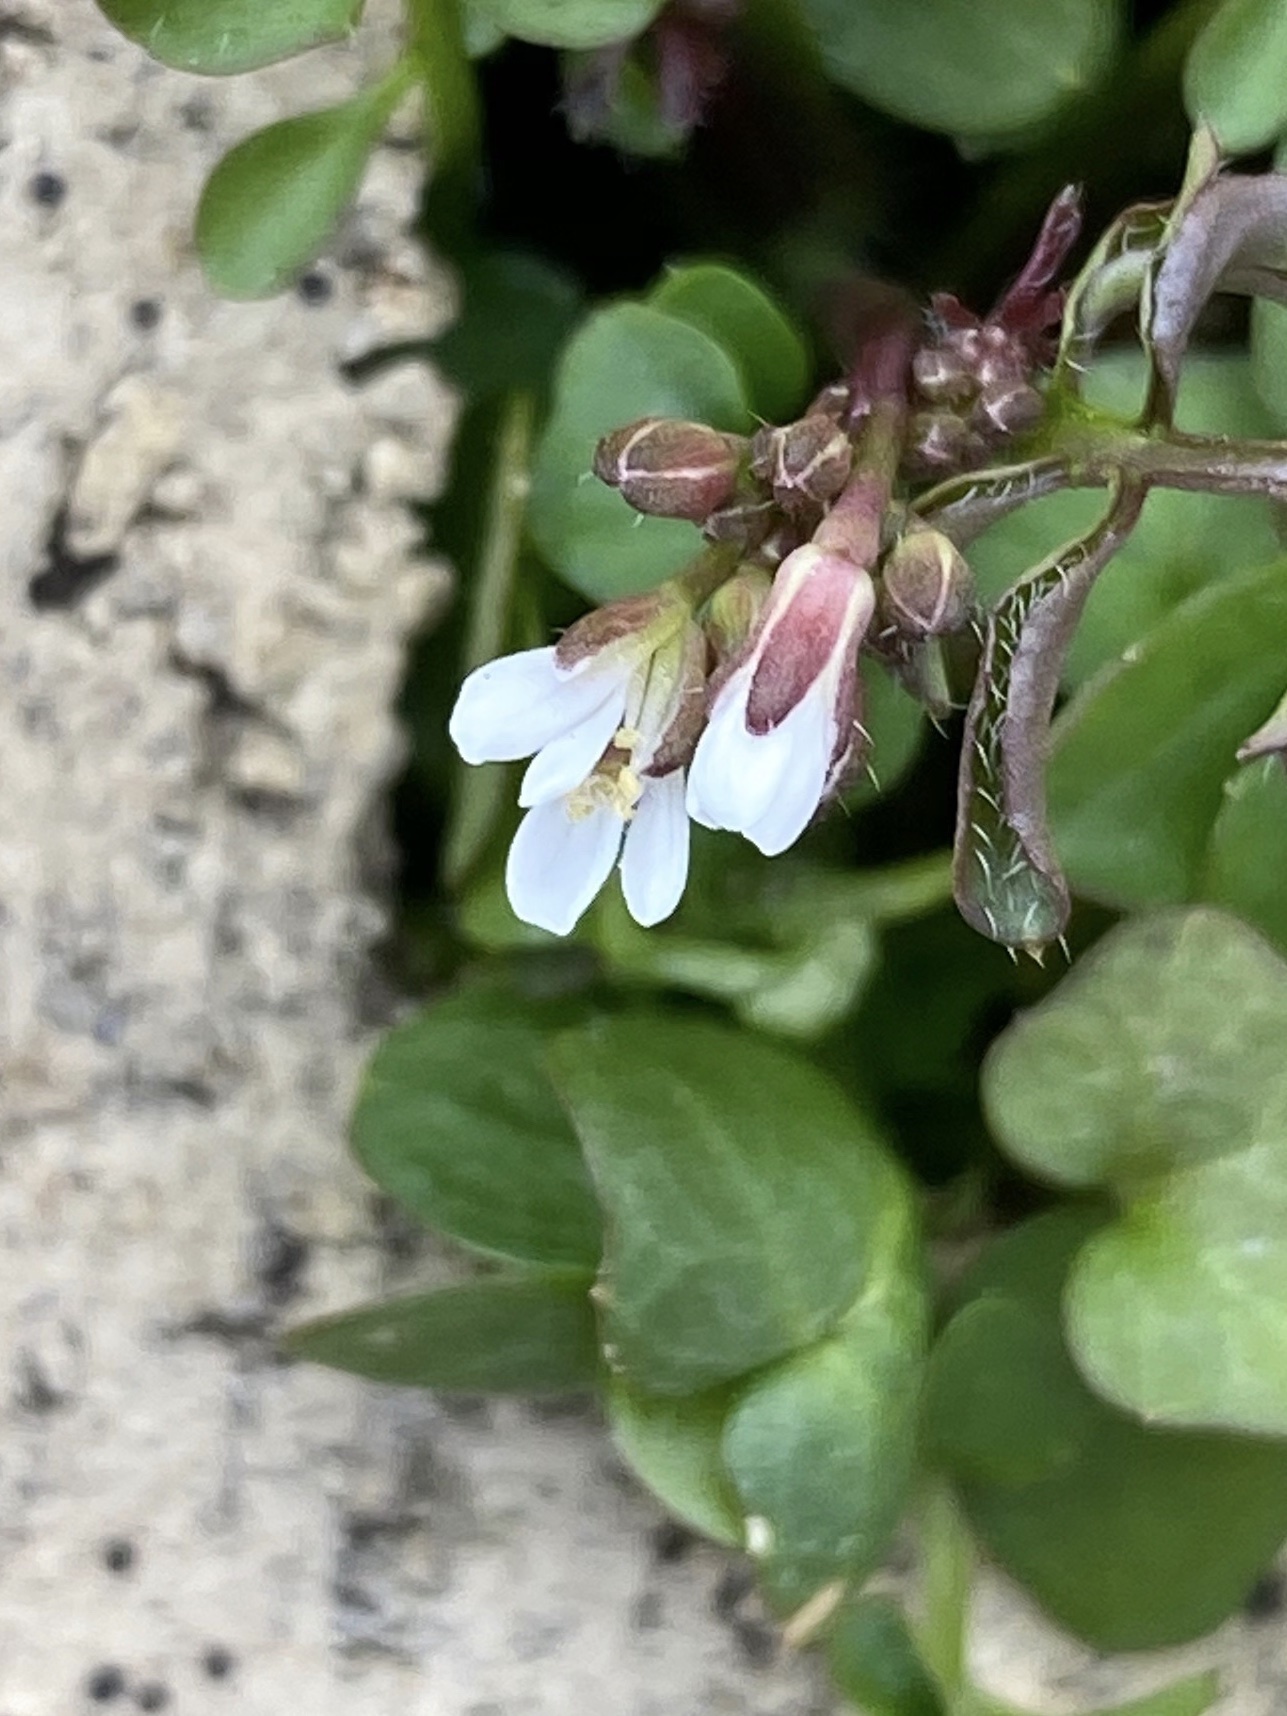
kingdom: Plantae
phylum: Tracheophyta
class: Magnoliopsida
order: Brassicales
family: Brassicaceae
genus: Cardamine
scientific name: Cardamine hirsuta
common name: Hairy bittercress
